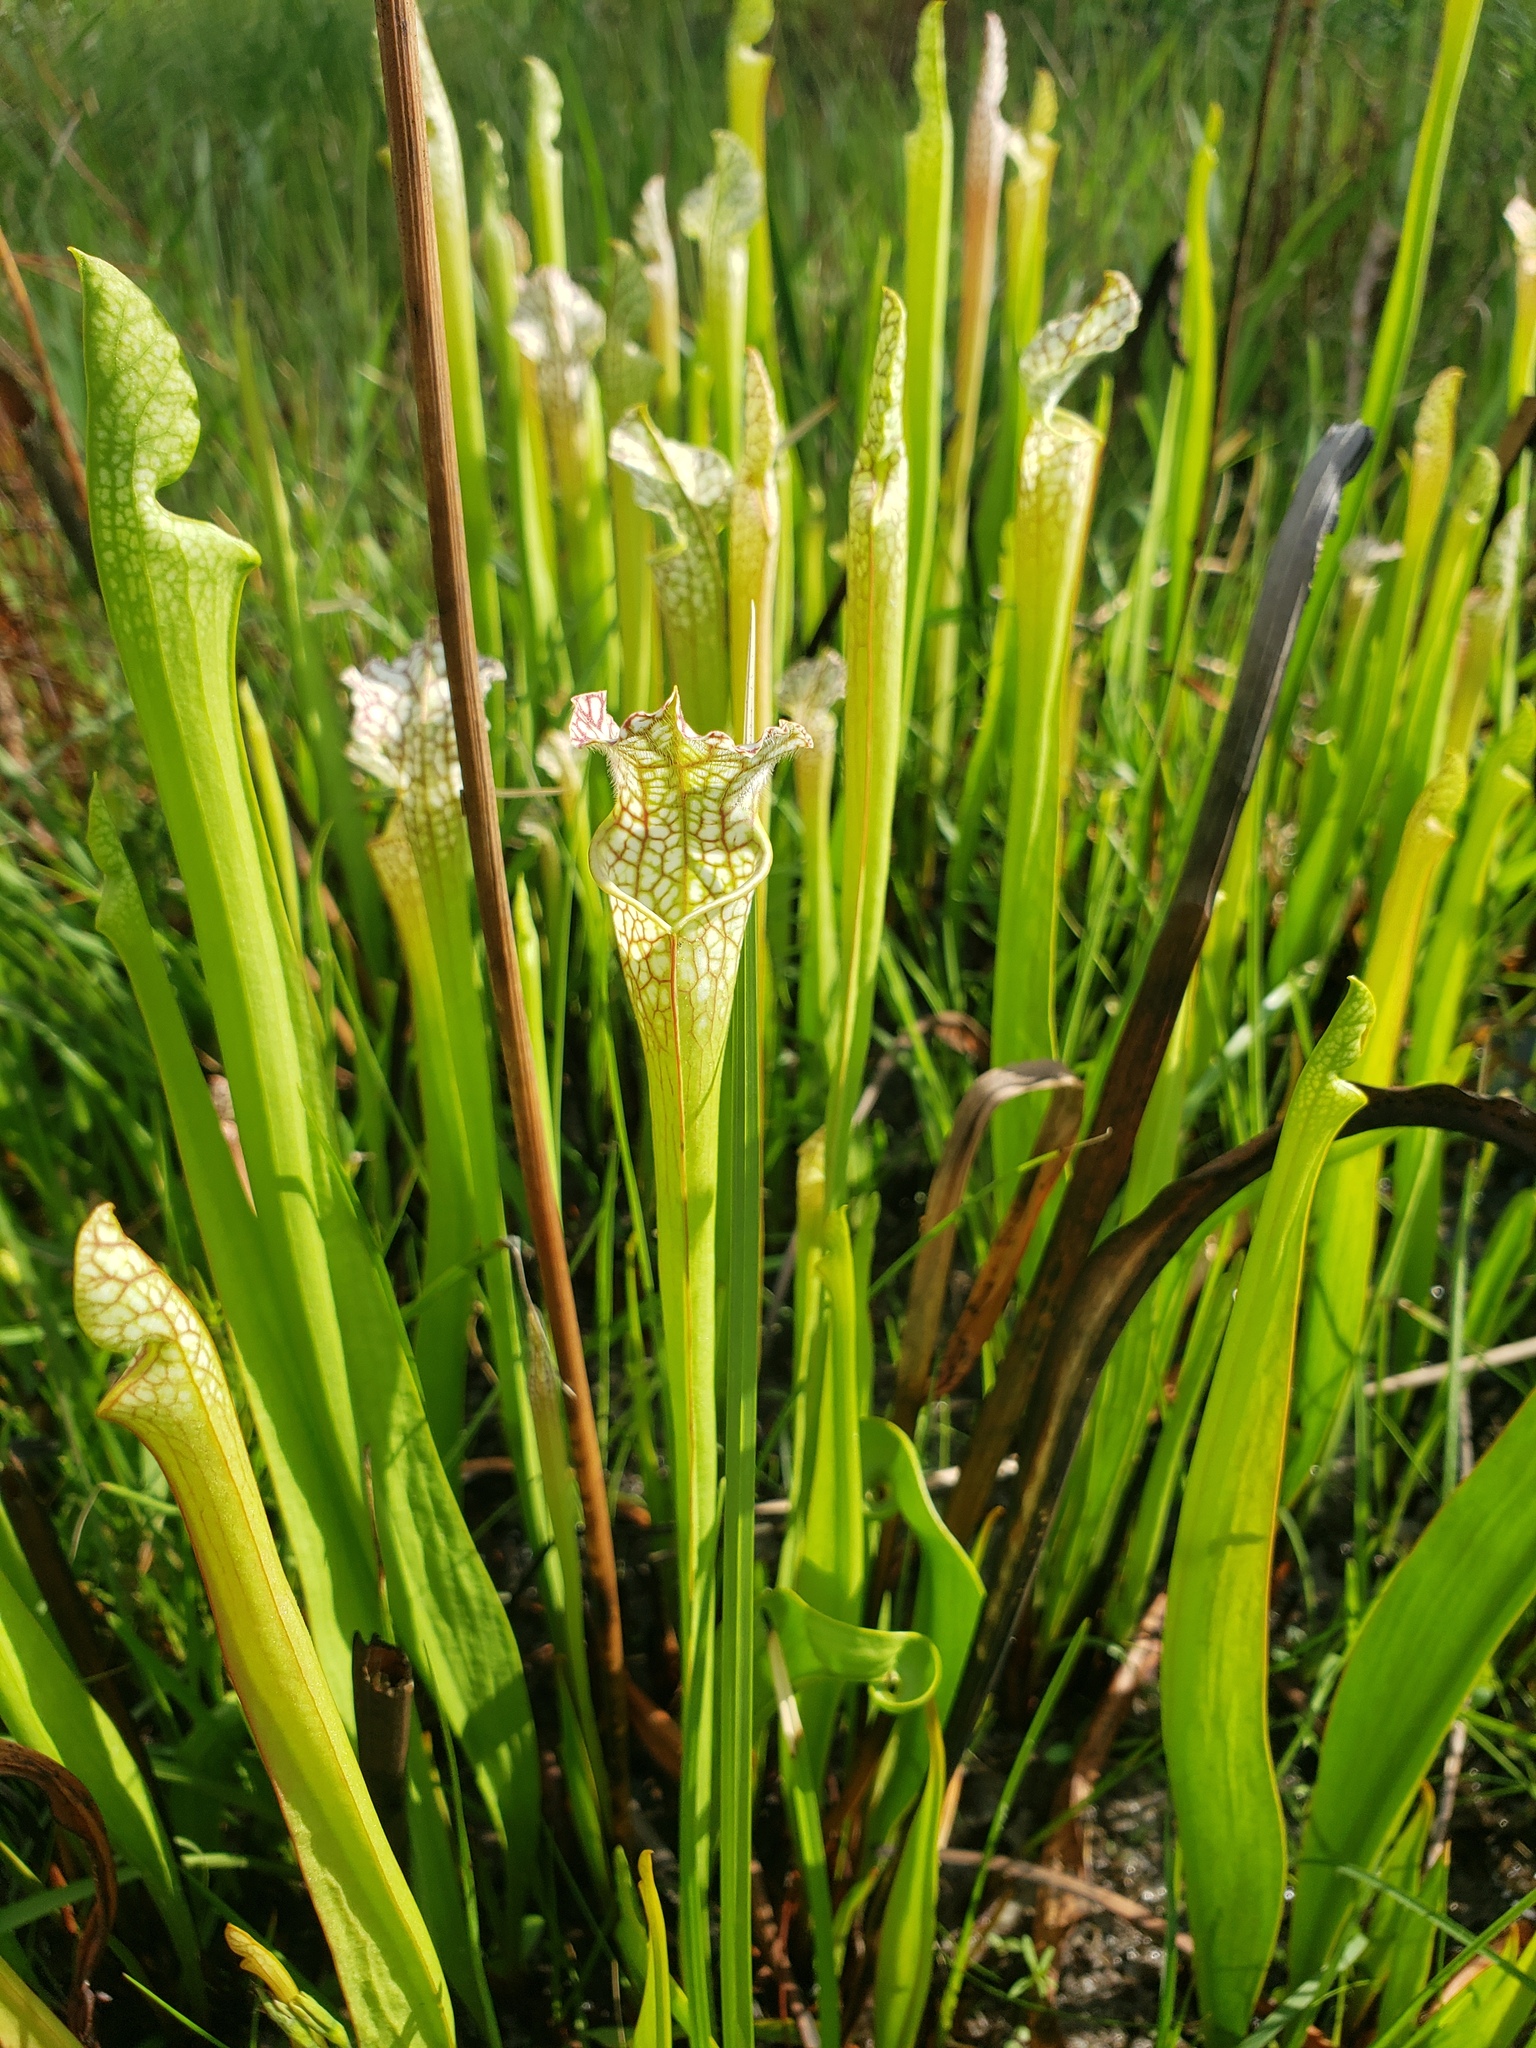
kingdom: Plantae
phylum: Tracheophyta
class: Magnoliopsida
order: Ericales
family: Sarraceniaceae
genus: Sarracenia
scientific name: Sarracenia leucophylla
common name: Purple trumpetleaf
